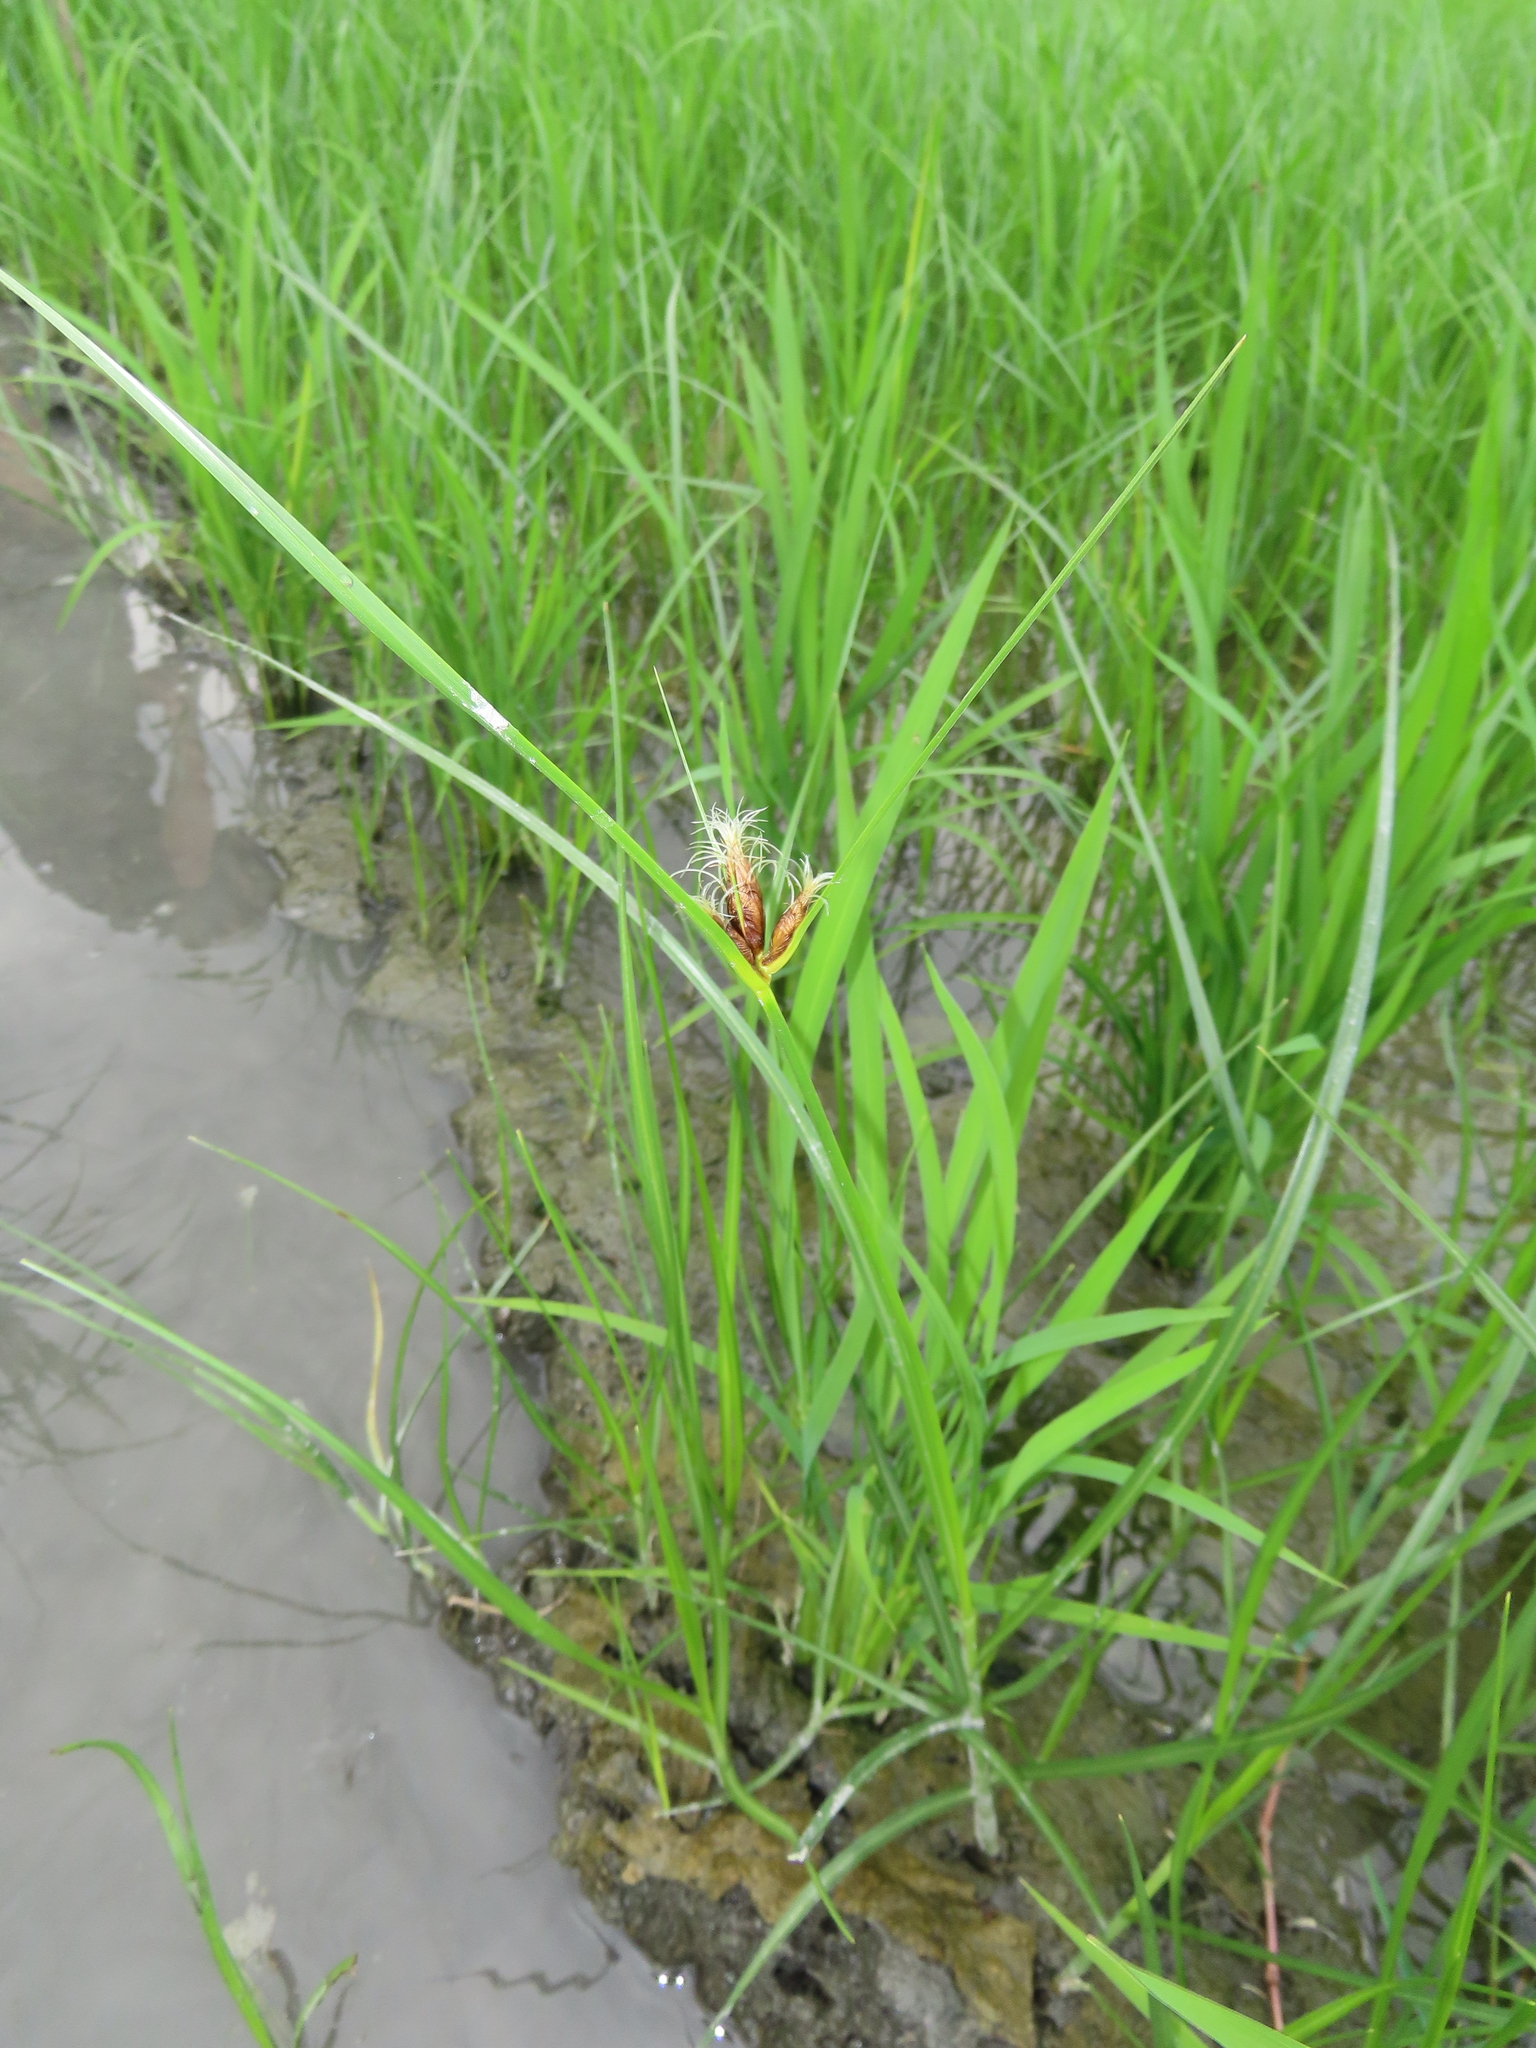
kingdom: Plantae
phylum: Tracheophyta
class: Liliopsida
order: Poales
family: Cyperaceae
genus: Bolboschoenus
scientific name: Bolboschoenus maritimus
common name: Sea club-rush
